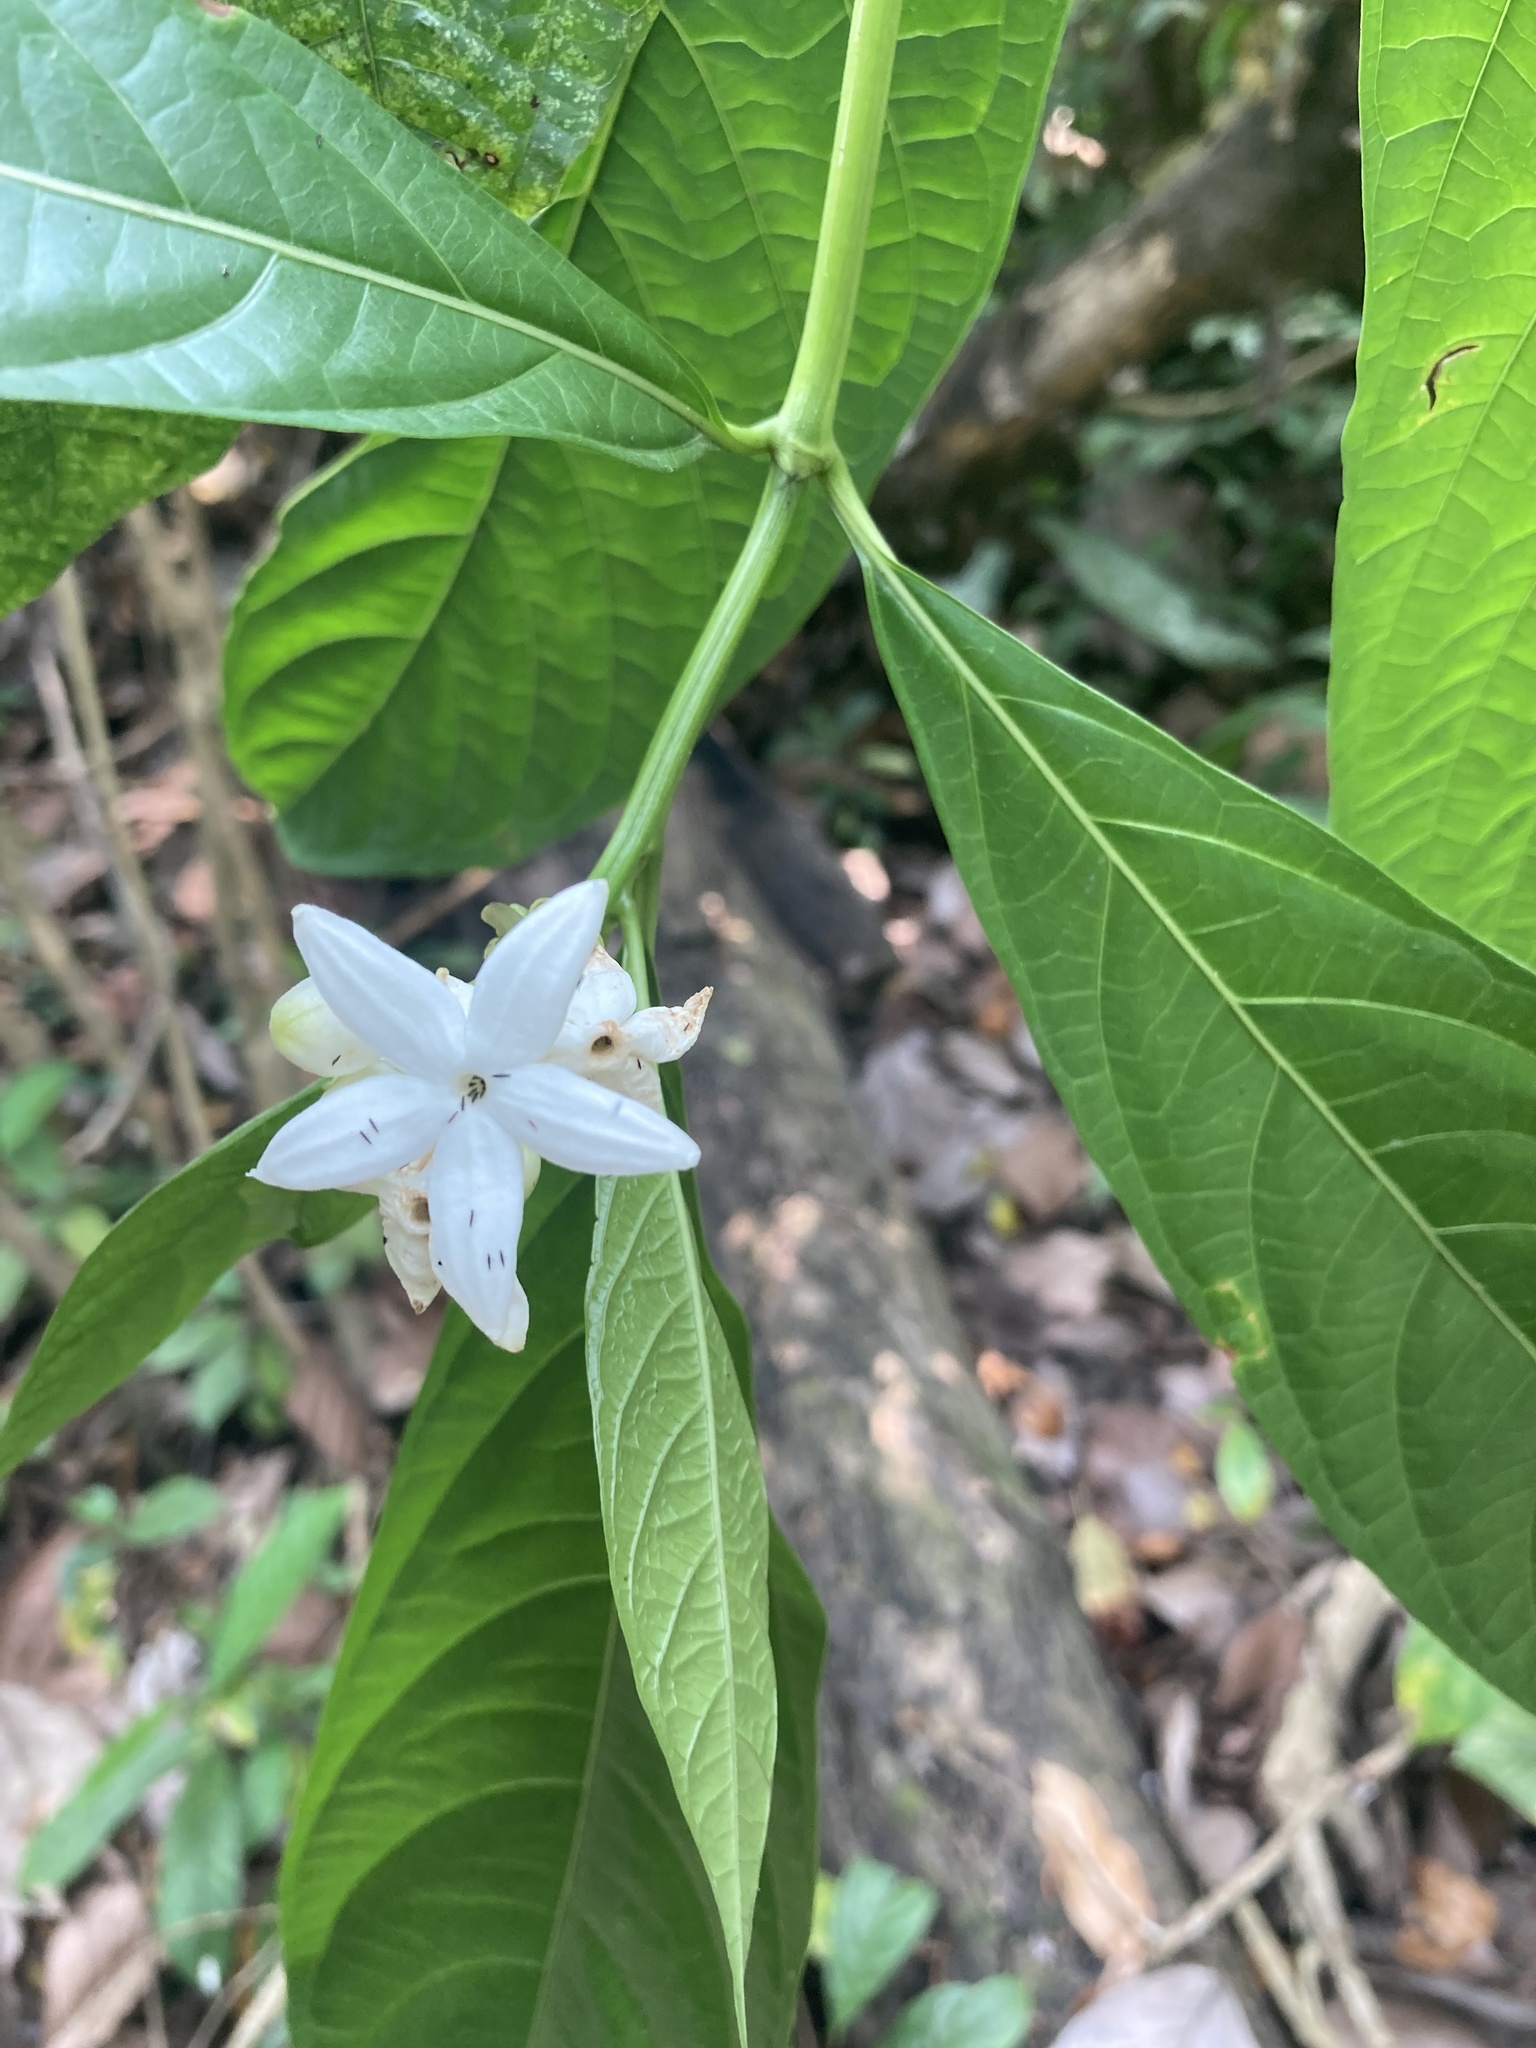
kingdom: Plantae
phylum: Tracheophyta
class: Magnoliopsida
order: Gentianales
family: Rubiaceae
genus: Morinda
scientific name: Morinda angustifolia
